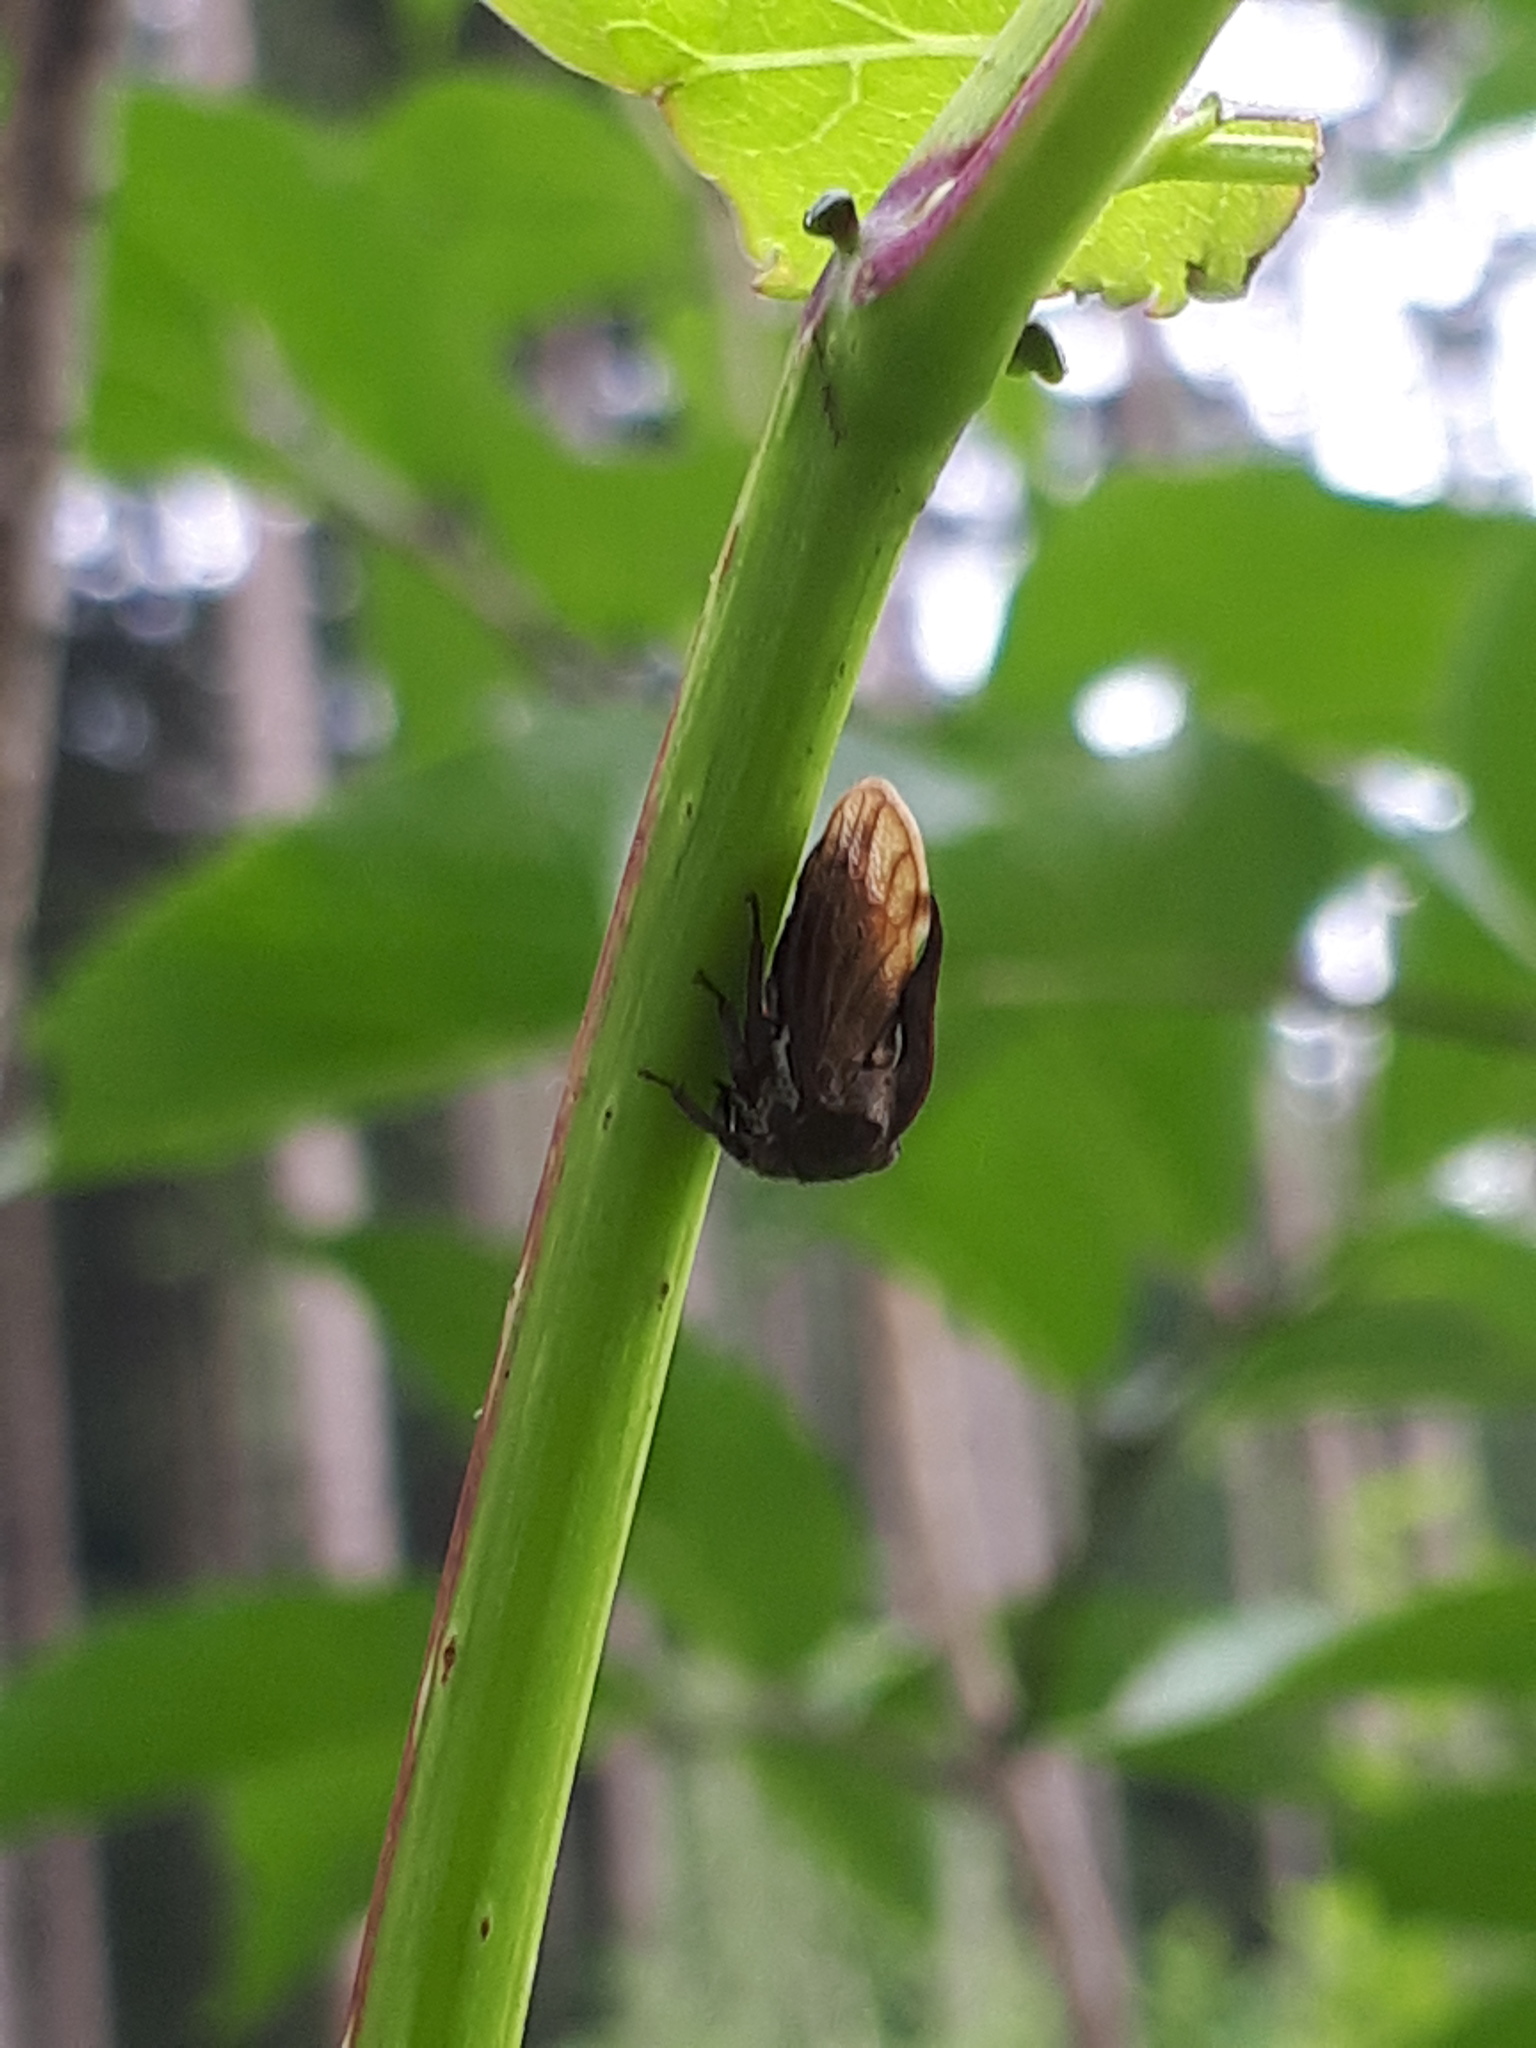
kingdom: Animalia
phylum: Arthropoda
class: Insecta
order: Hemiptera
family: Membracidae
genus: Centrotus
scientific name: Centrotus cornuta
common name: Treehopper
